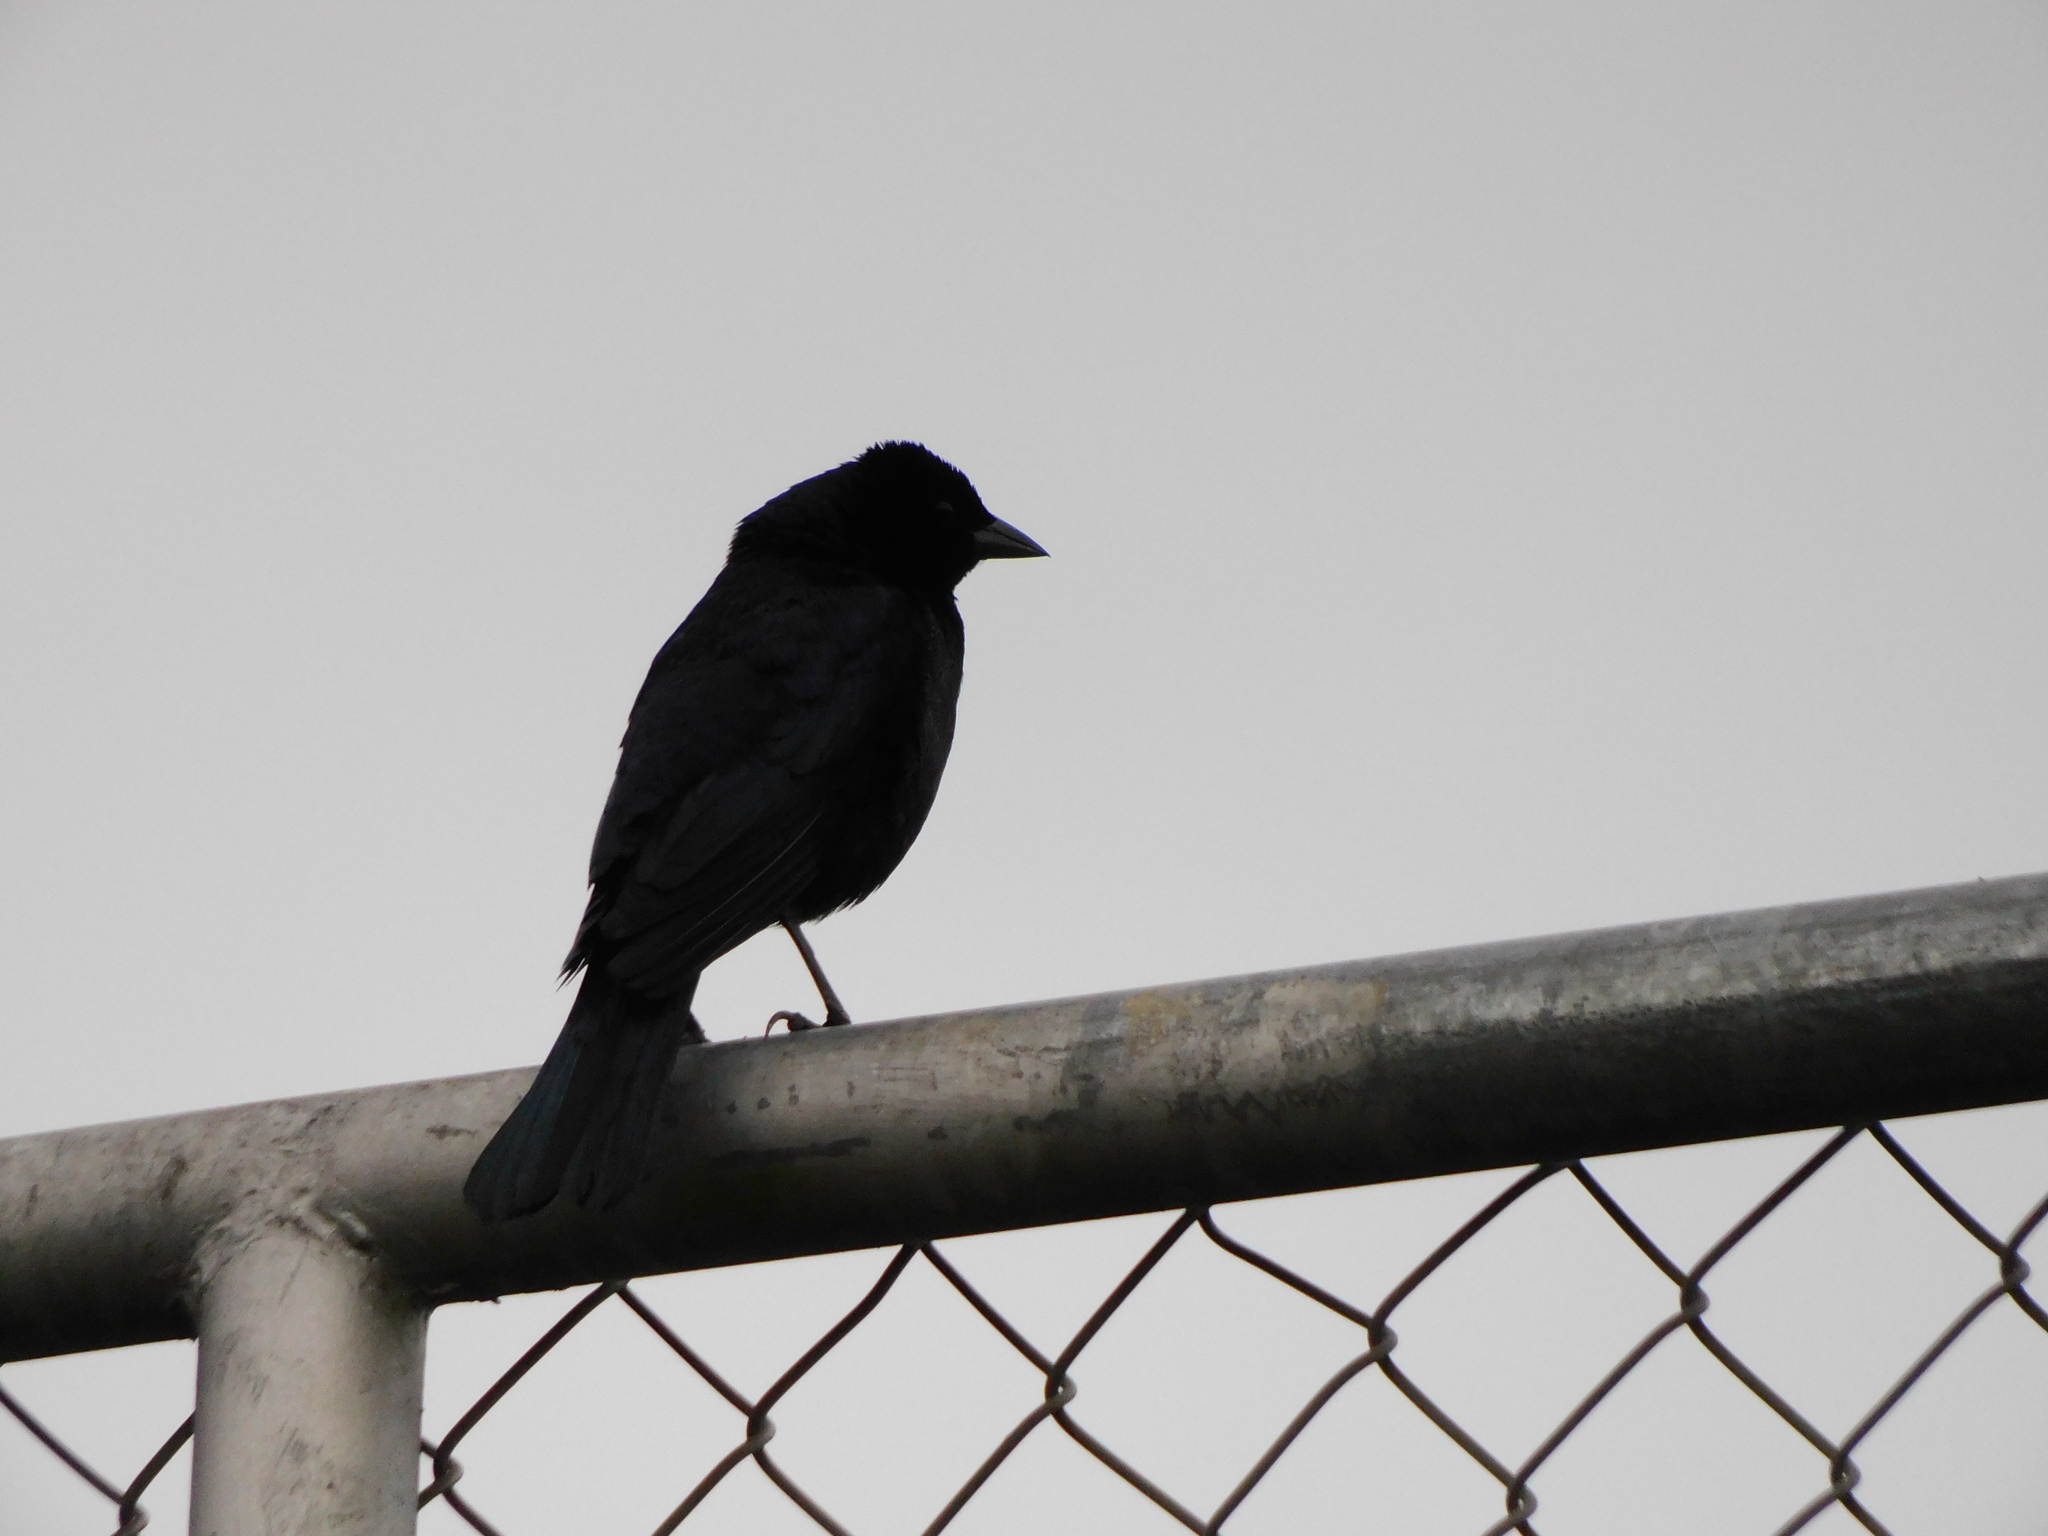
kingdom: Animalia
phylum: Chordata
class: Aves
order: Passeriformes
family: Icteridae
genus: Molothrus
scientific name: Molothrus bonariensis
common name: Shiny cowbird
